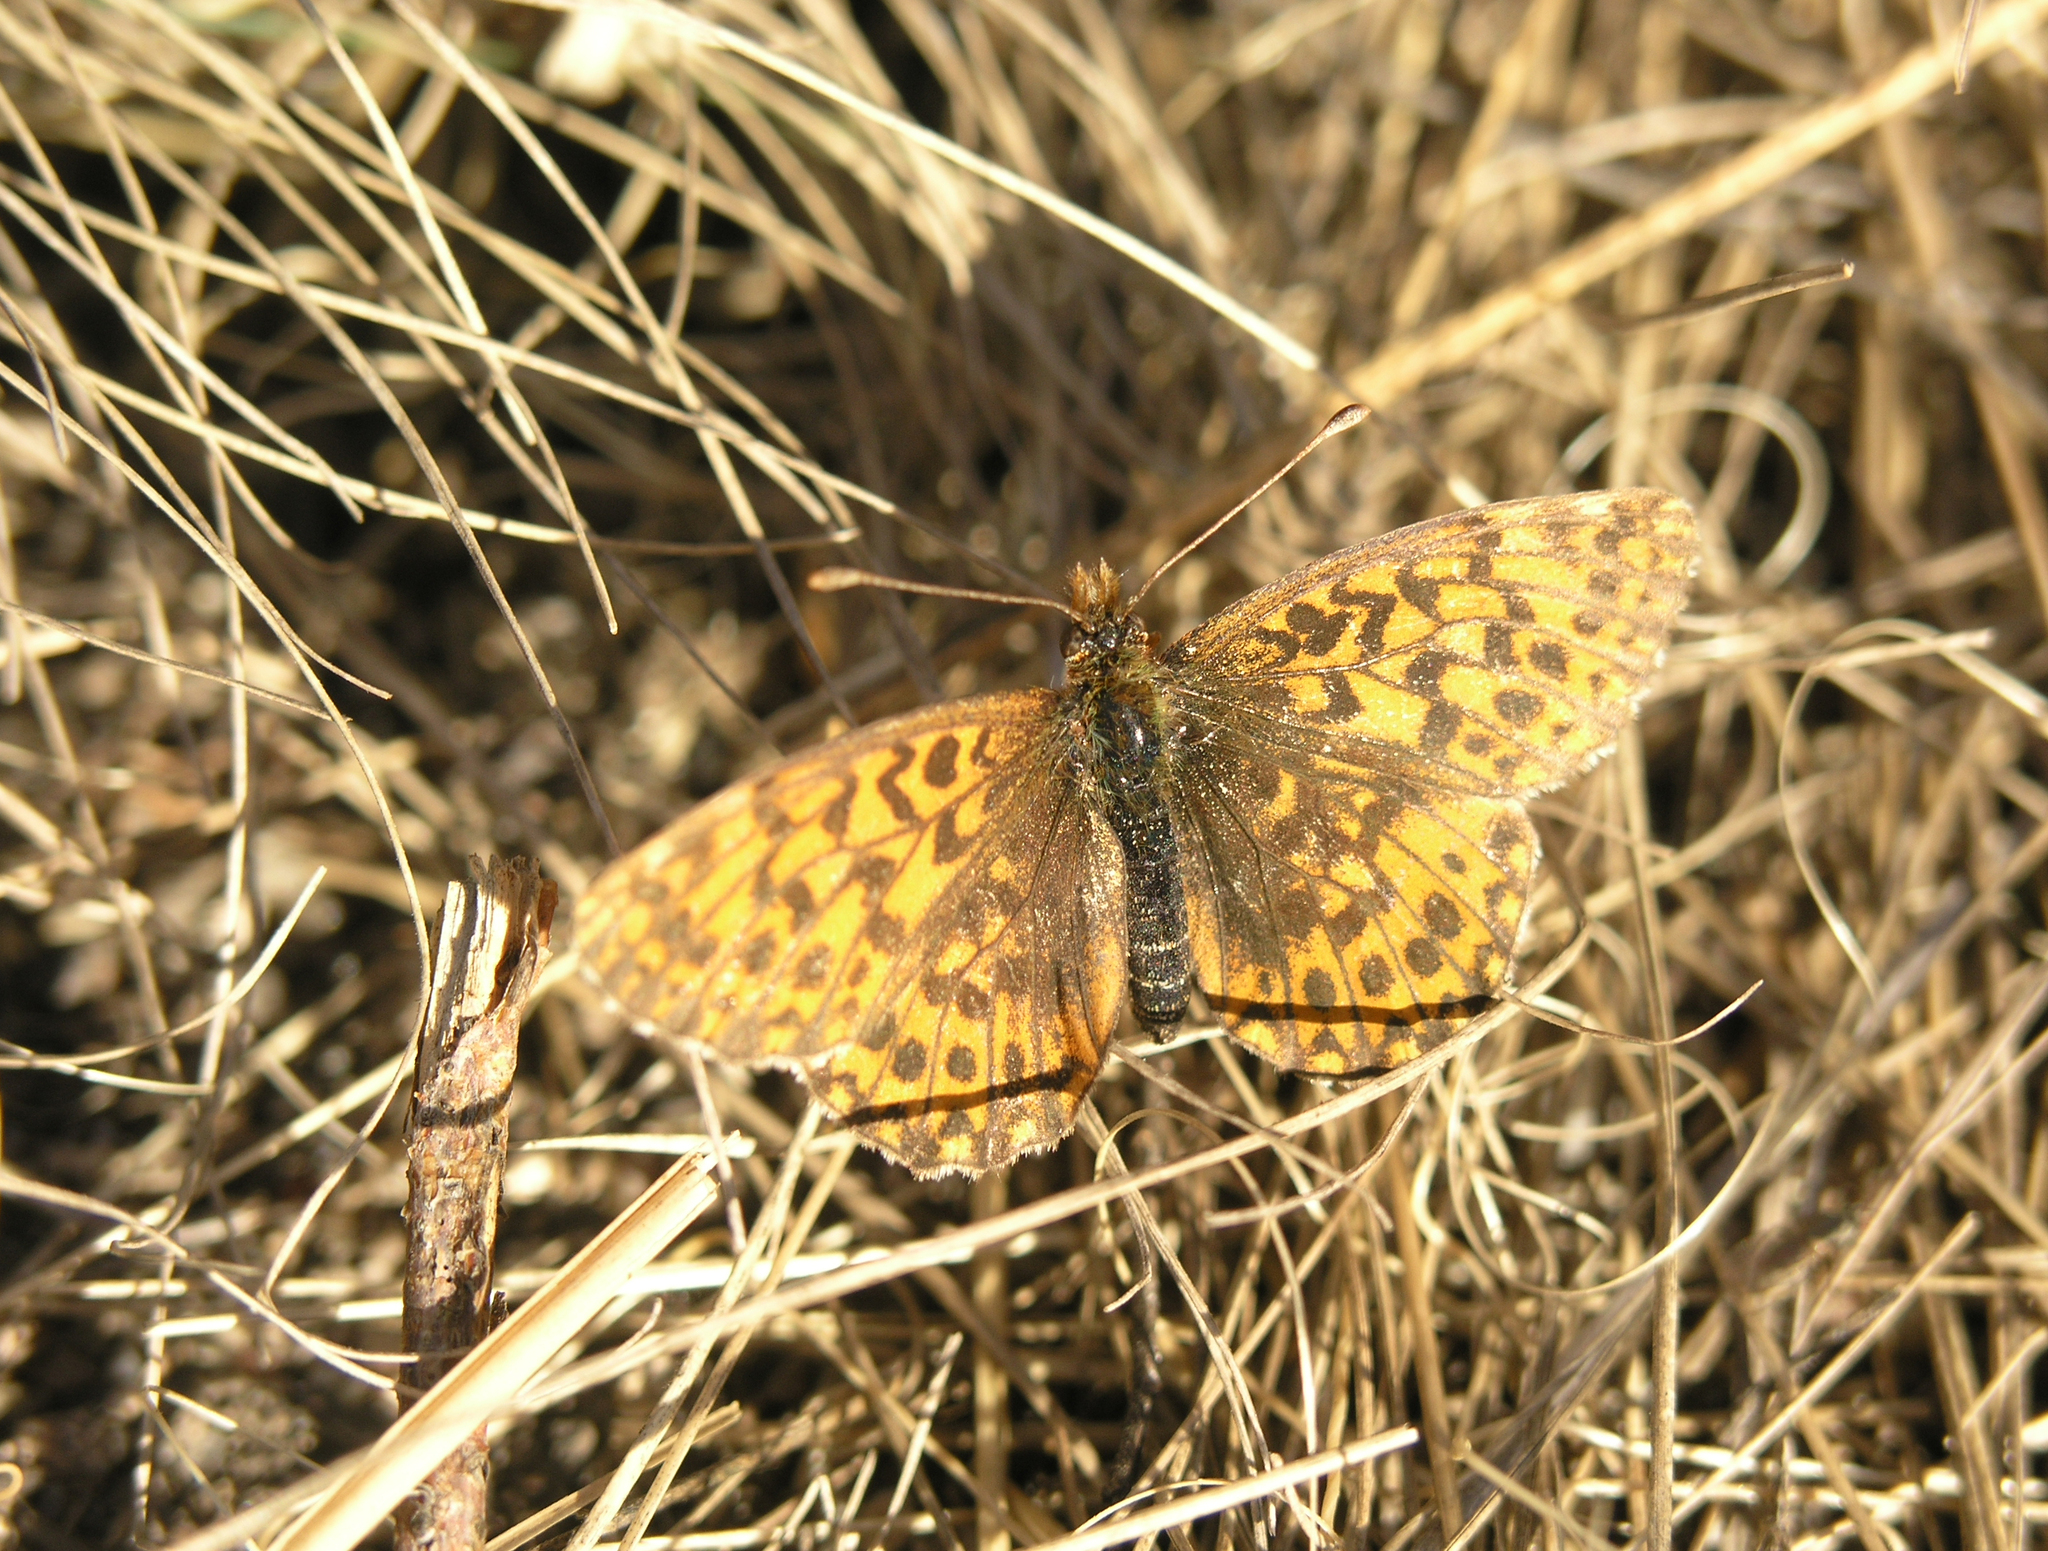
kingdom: Animalia
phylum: Arthropoda
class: Insecta
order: Lepidoptera
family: Nymphalidae
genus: Boloria
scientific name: Boloria dia
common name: Weaver's fritillary
